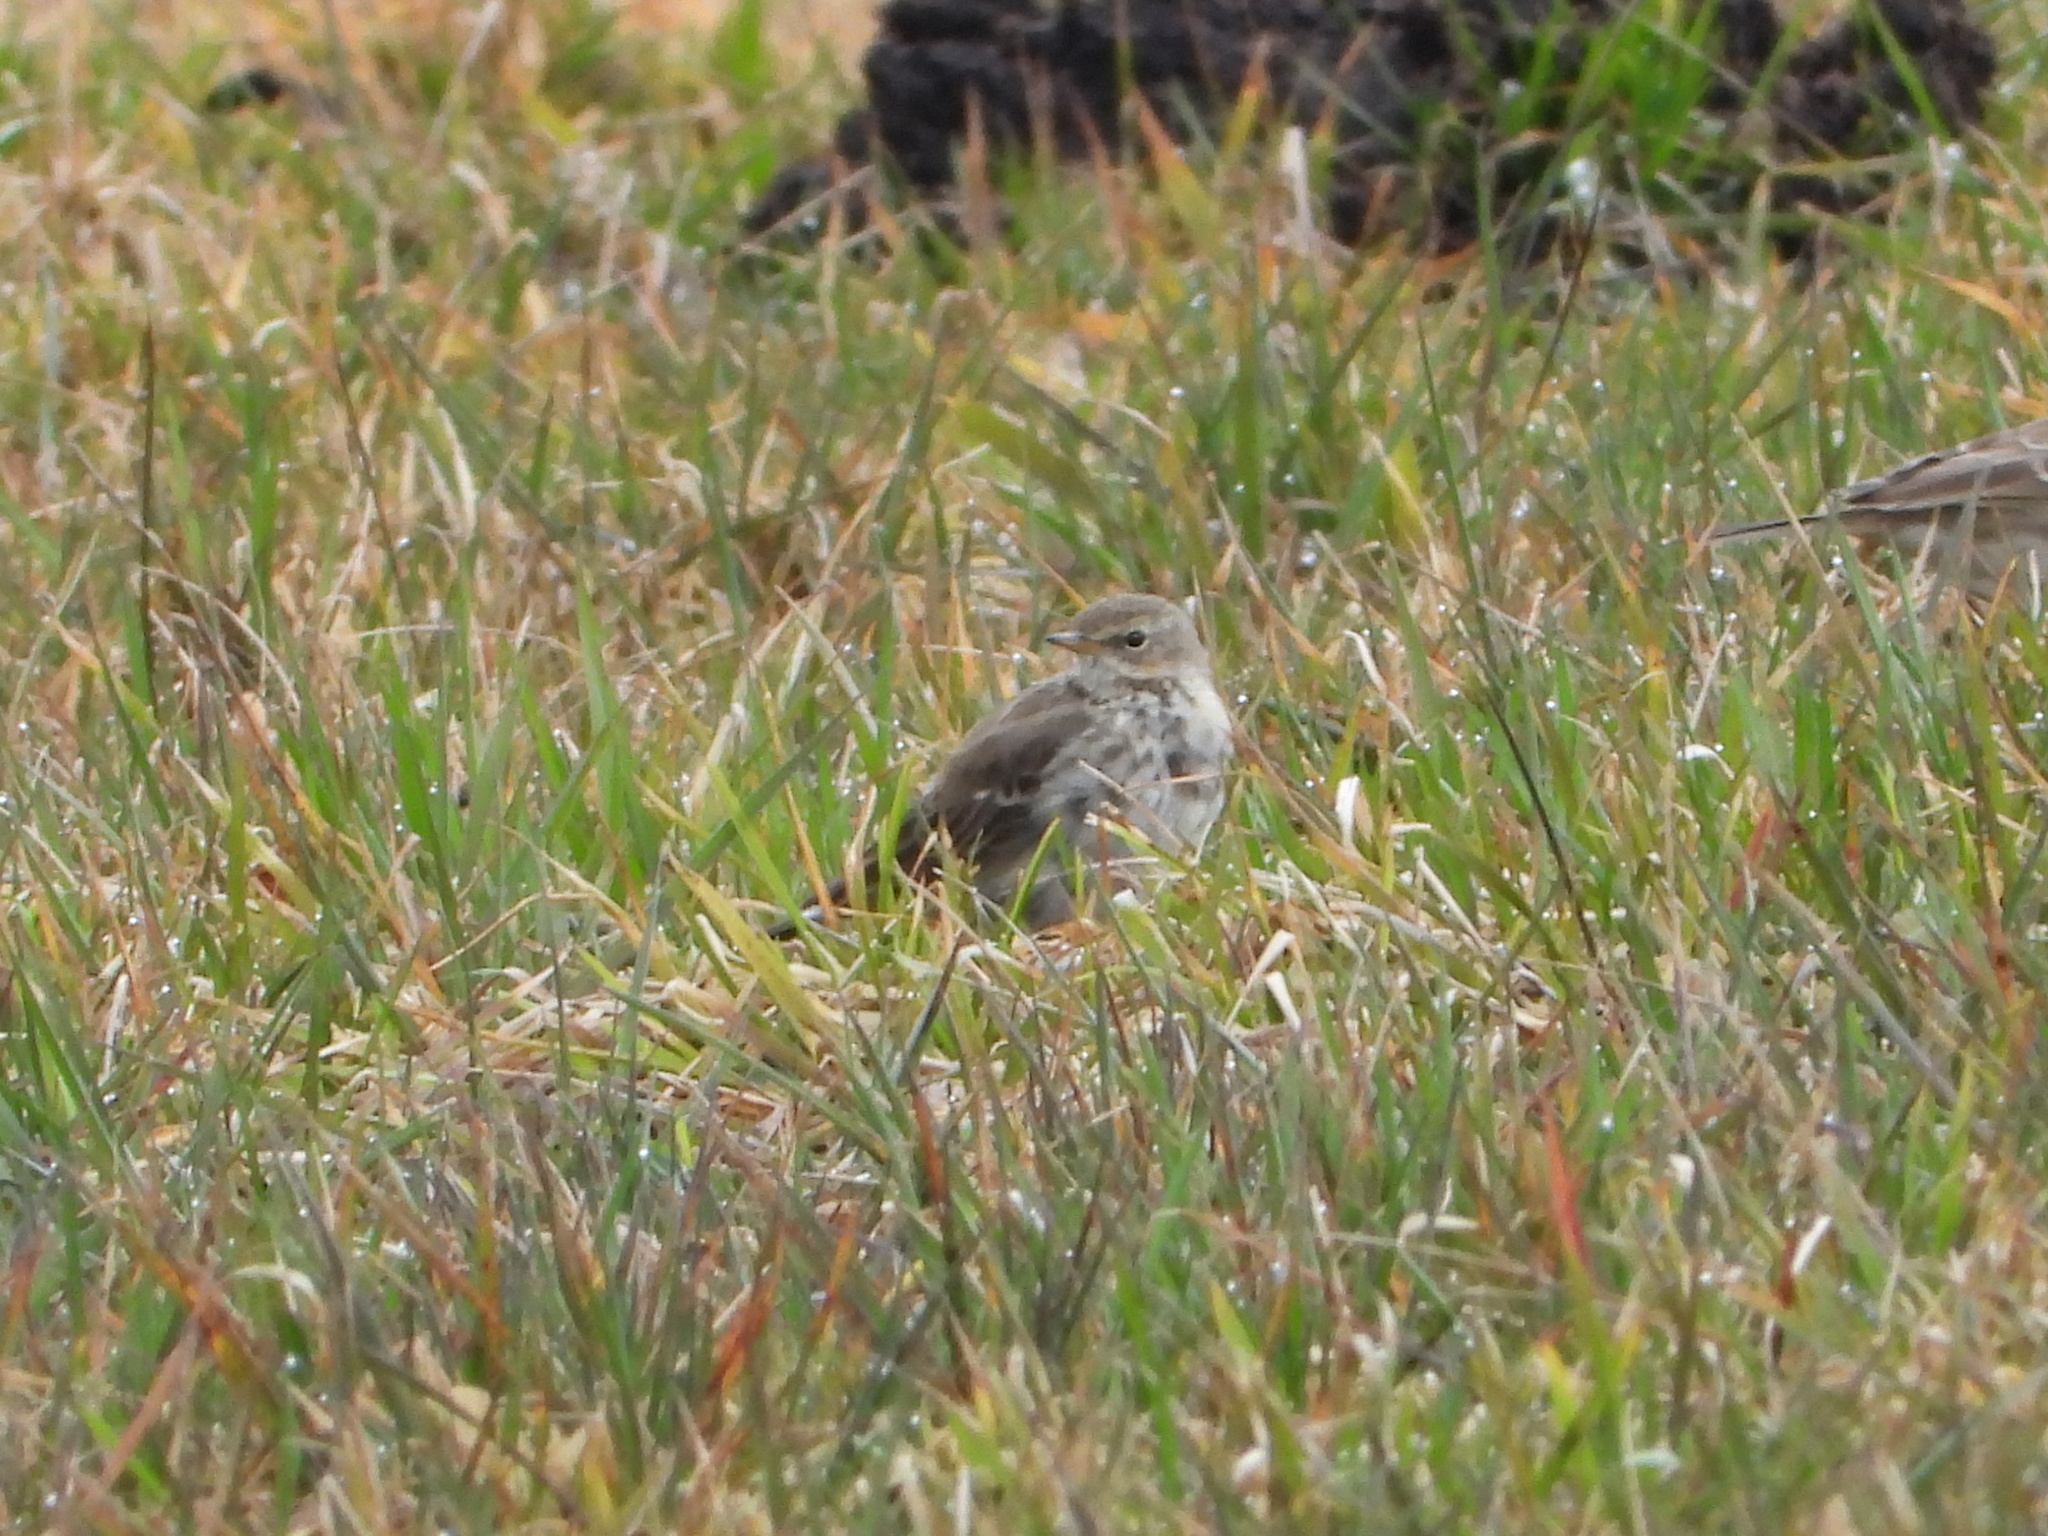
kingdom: Animalia
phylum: Chordata
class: Aves
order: Passeriformes
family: Motacillidae
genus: Anthus
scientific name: Anthus spinoletta
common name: Water pipit
